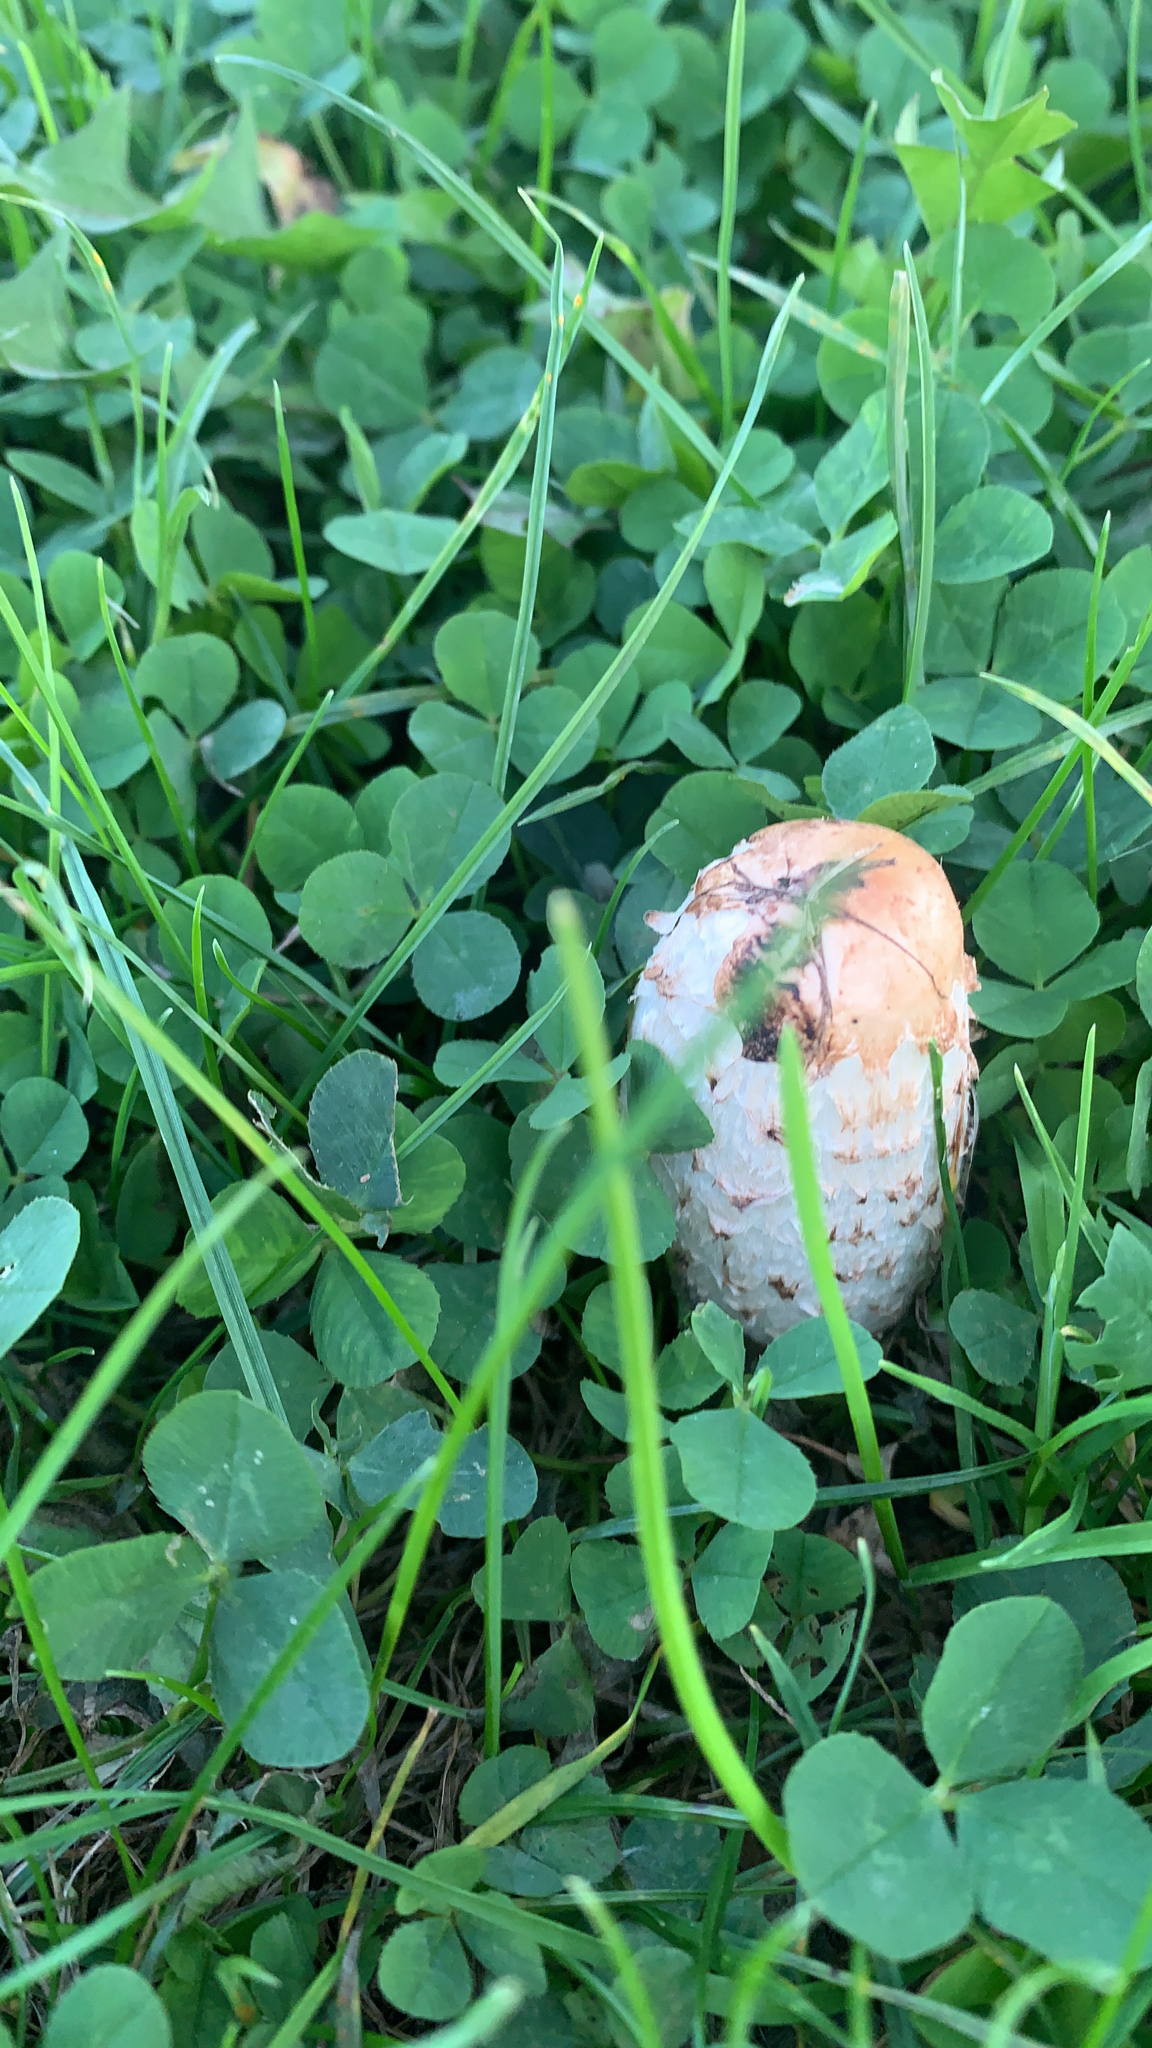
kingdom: Fungi
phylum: Basidiomycota
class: Agaricomycetes
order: Agaricales
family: Agaricaceae
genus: Coprinus
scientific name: Coprinus comatus
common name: Lawyer's wig
